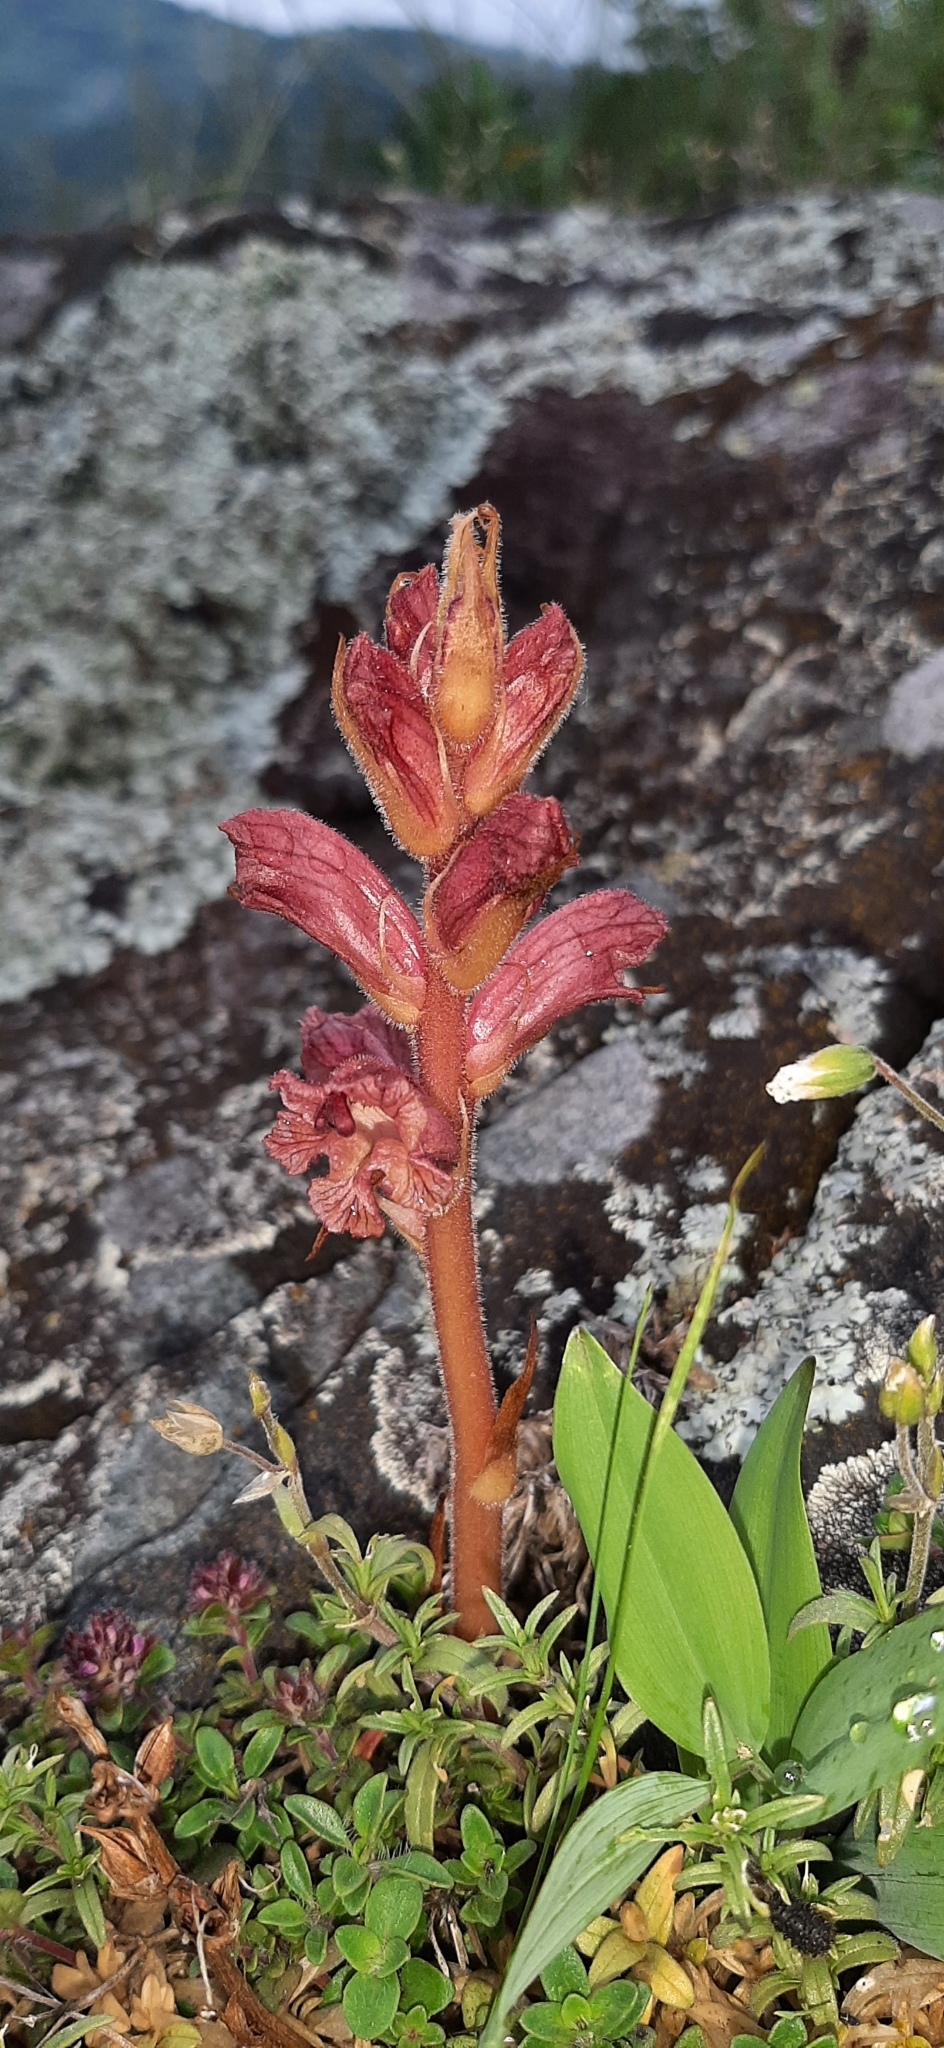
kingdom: Plantae
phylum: Tracheophyta
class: Magnoliopsida
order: Lamiales
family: Orobanchaceae
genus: Orobanche
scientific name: Orobanche alba
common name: Thyme broomrape
